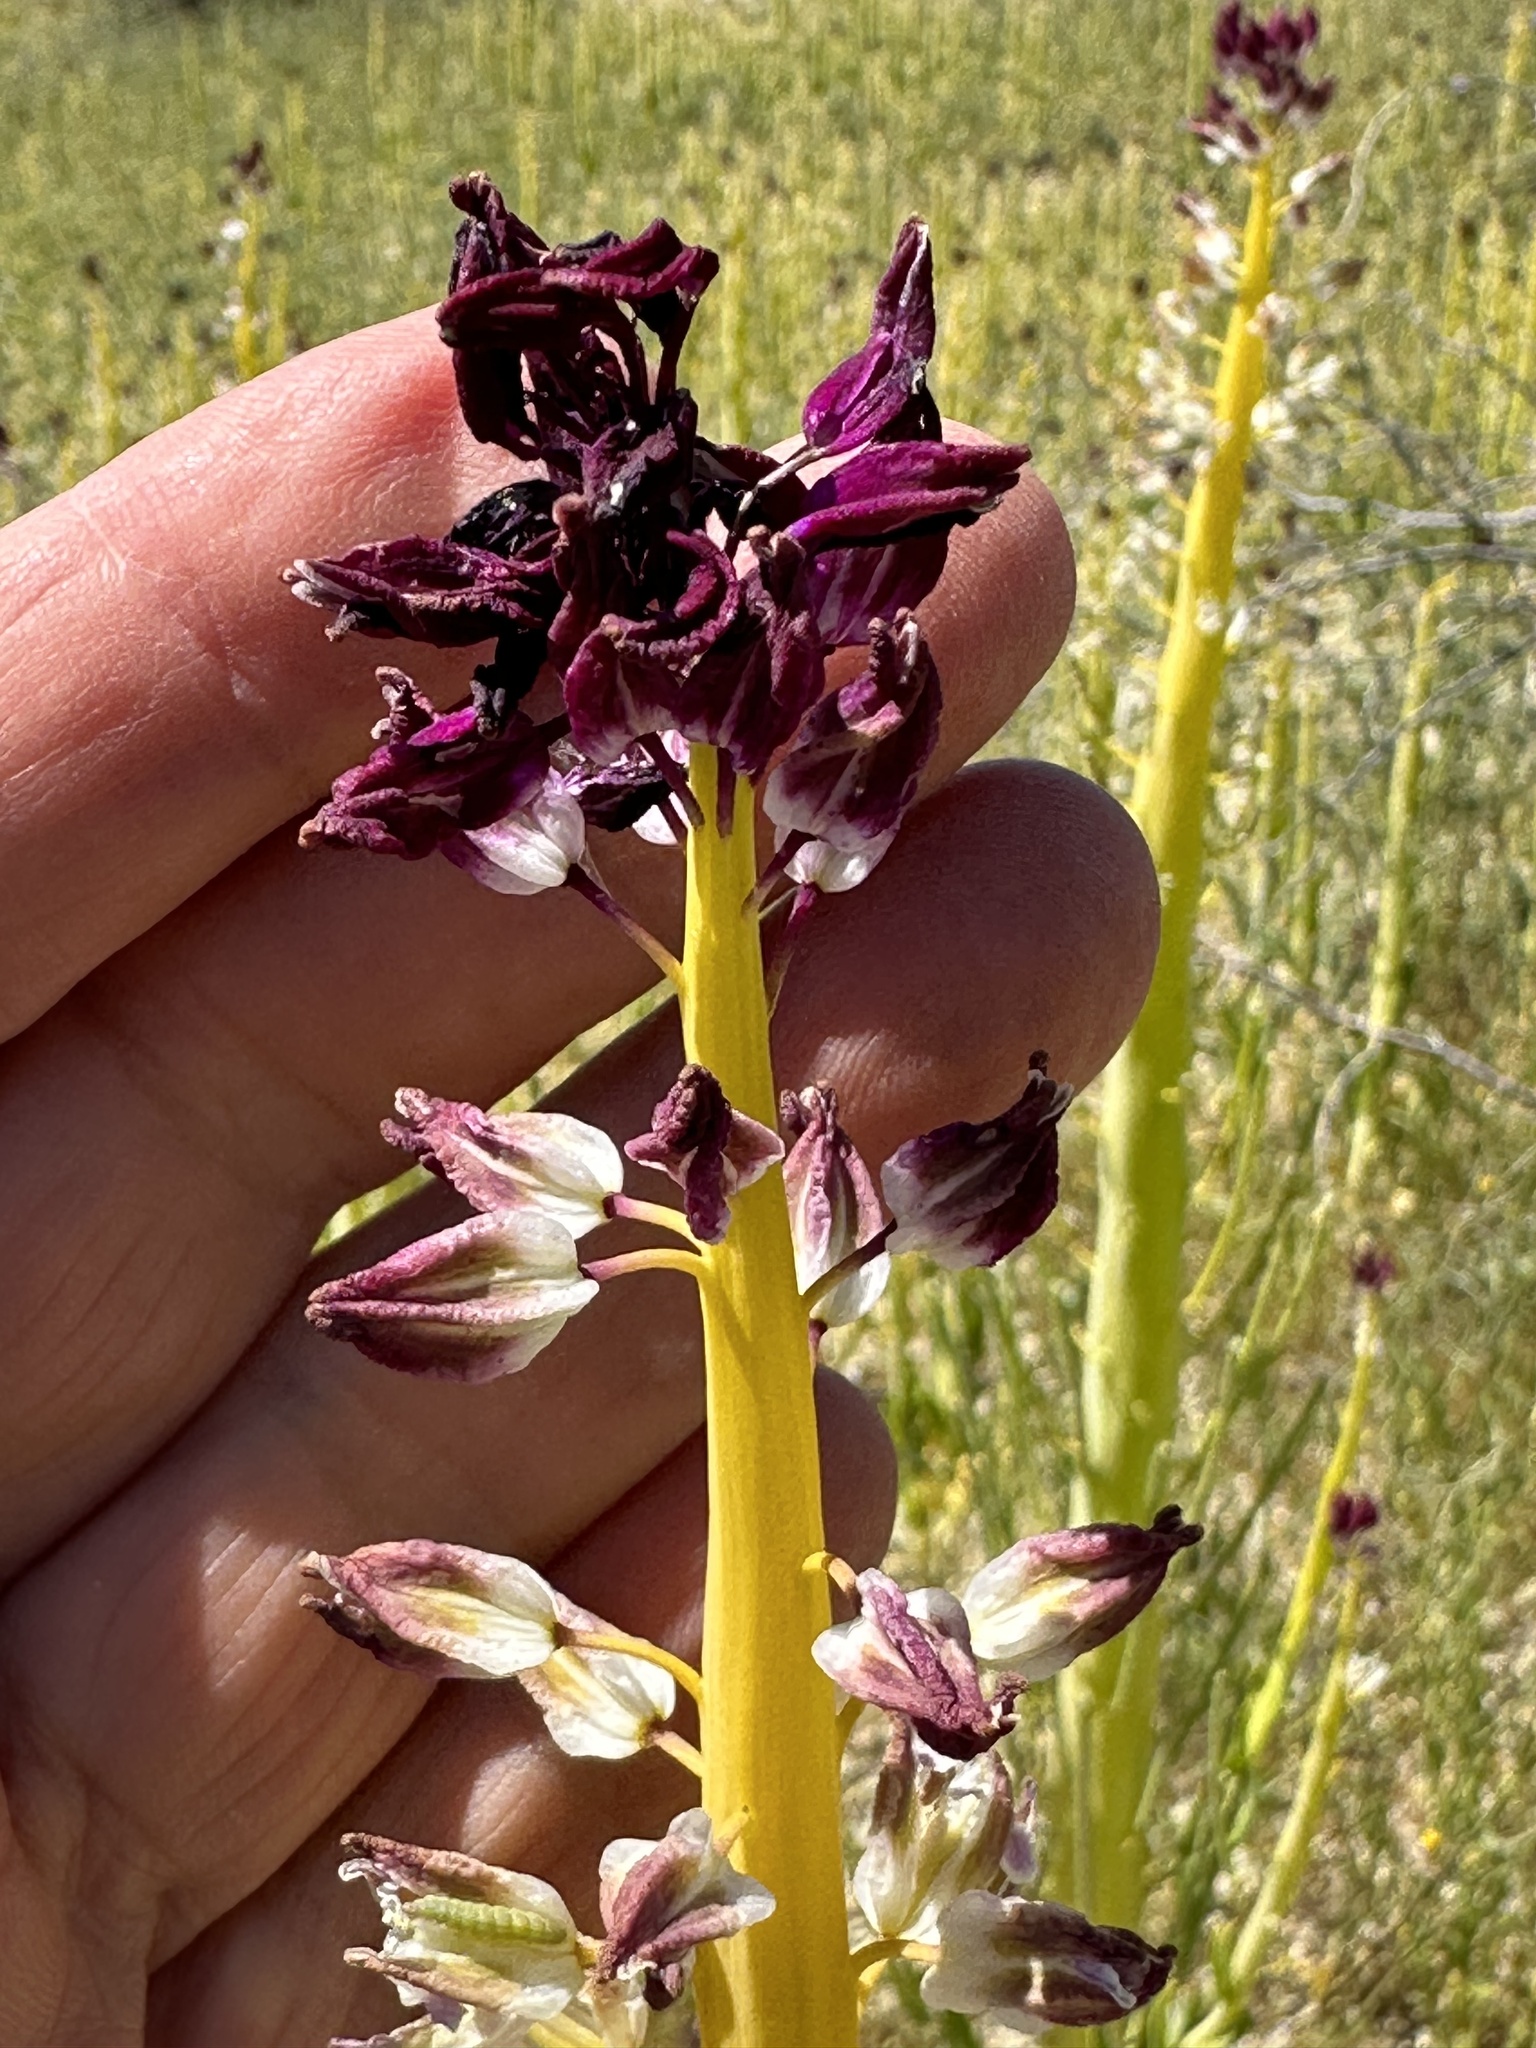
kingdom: Plantae
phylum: Tracheophyta
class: Magnoliopsida
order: Brassicales
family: Brassicaceae
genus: Streptanthus
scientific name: Streptanthus inflatus
